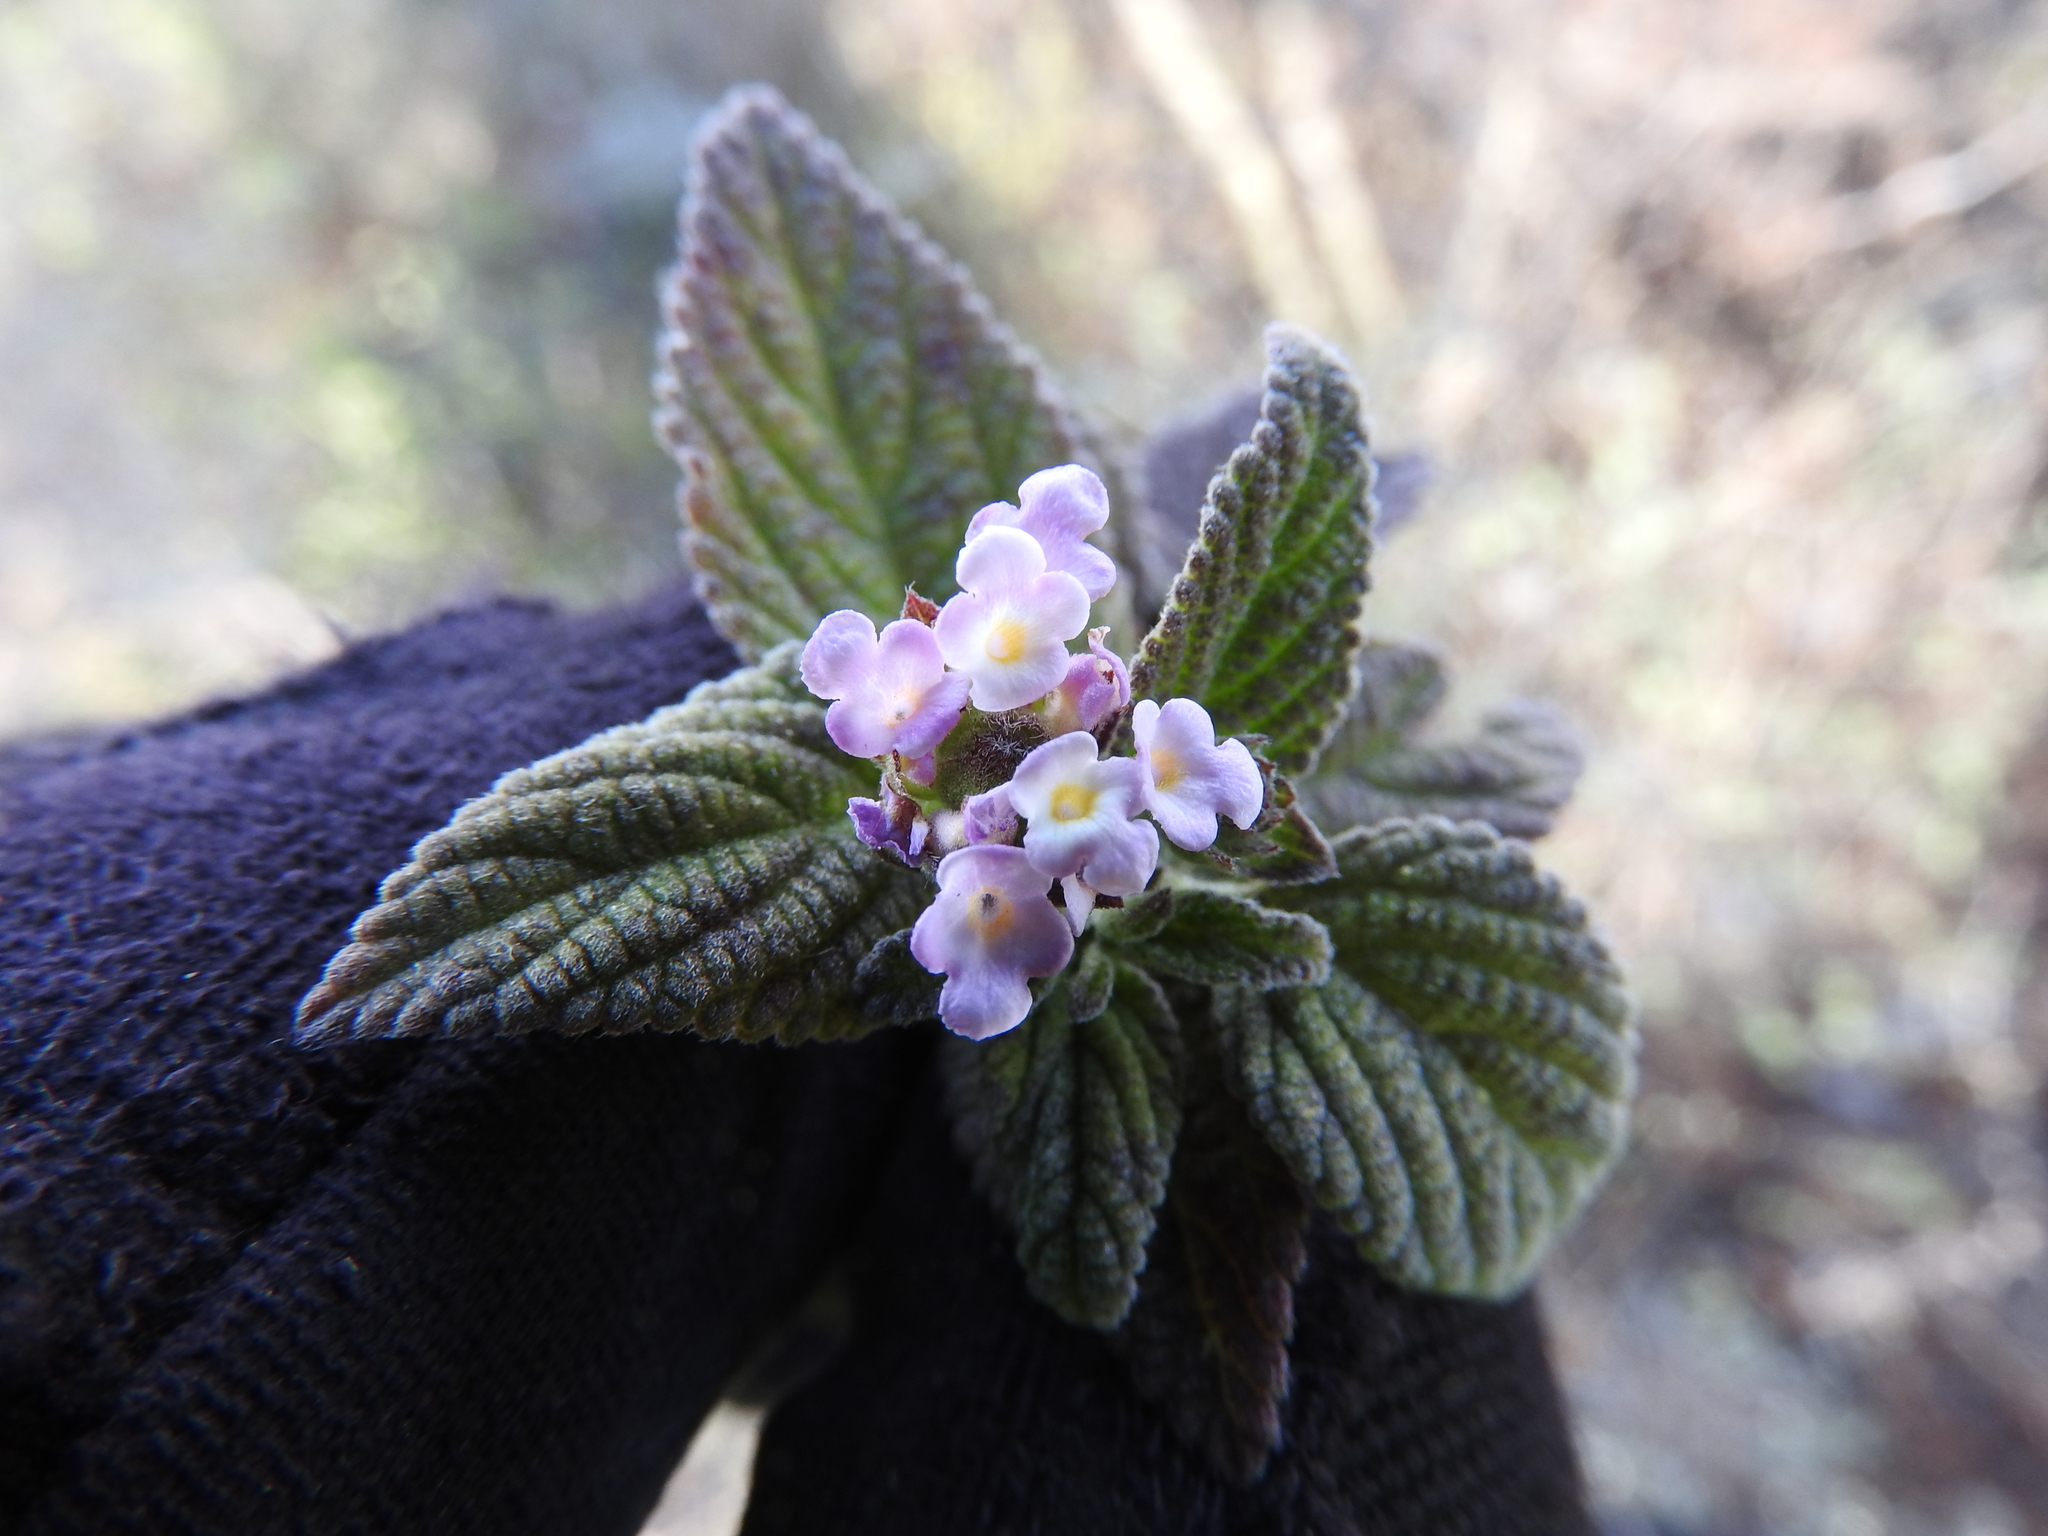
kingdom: Plantae
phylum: Tracheophyta
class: Magnoliopsida
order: Lamiales
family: Verbenaceae
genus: Lantana
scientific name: Lantana velutina
